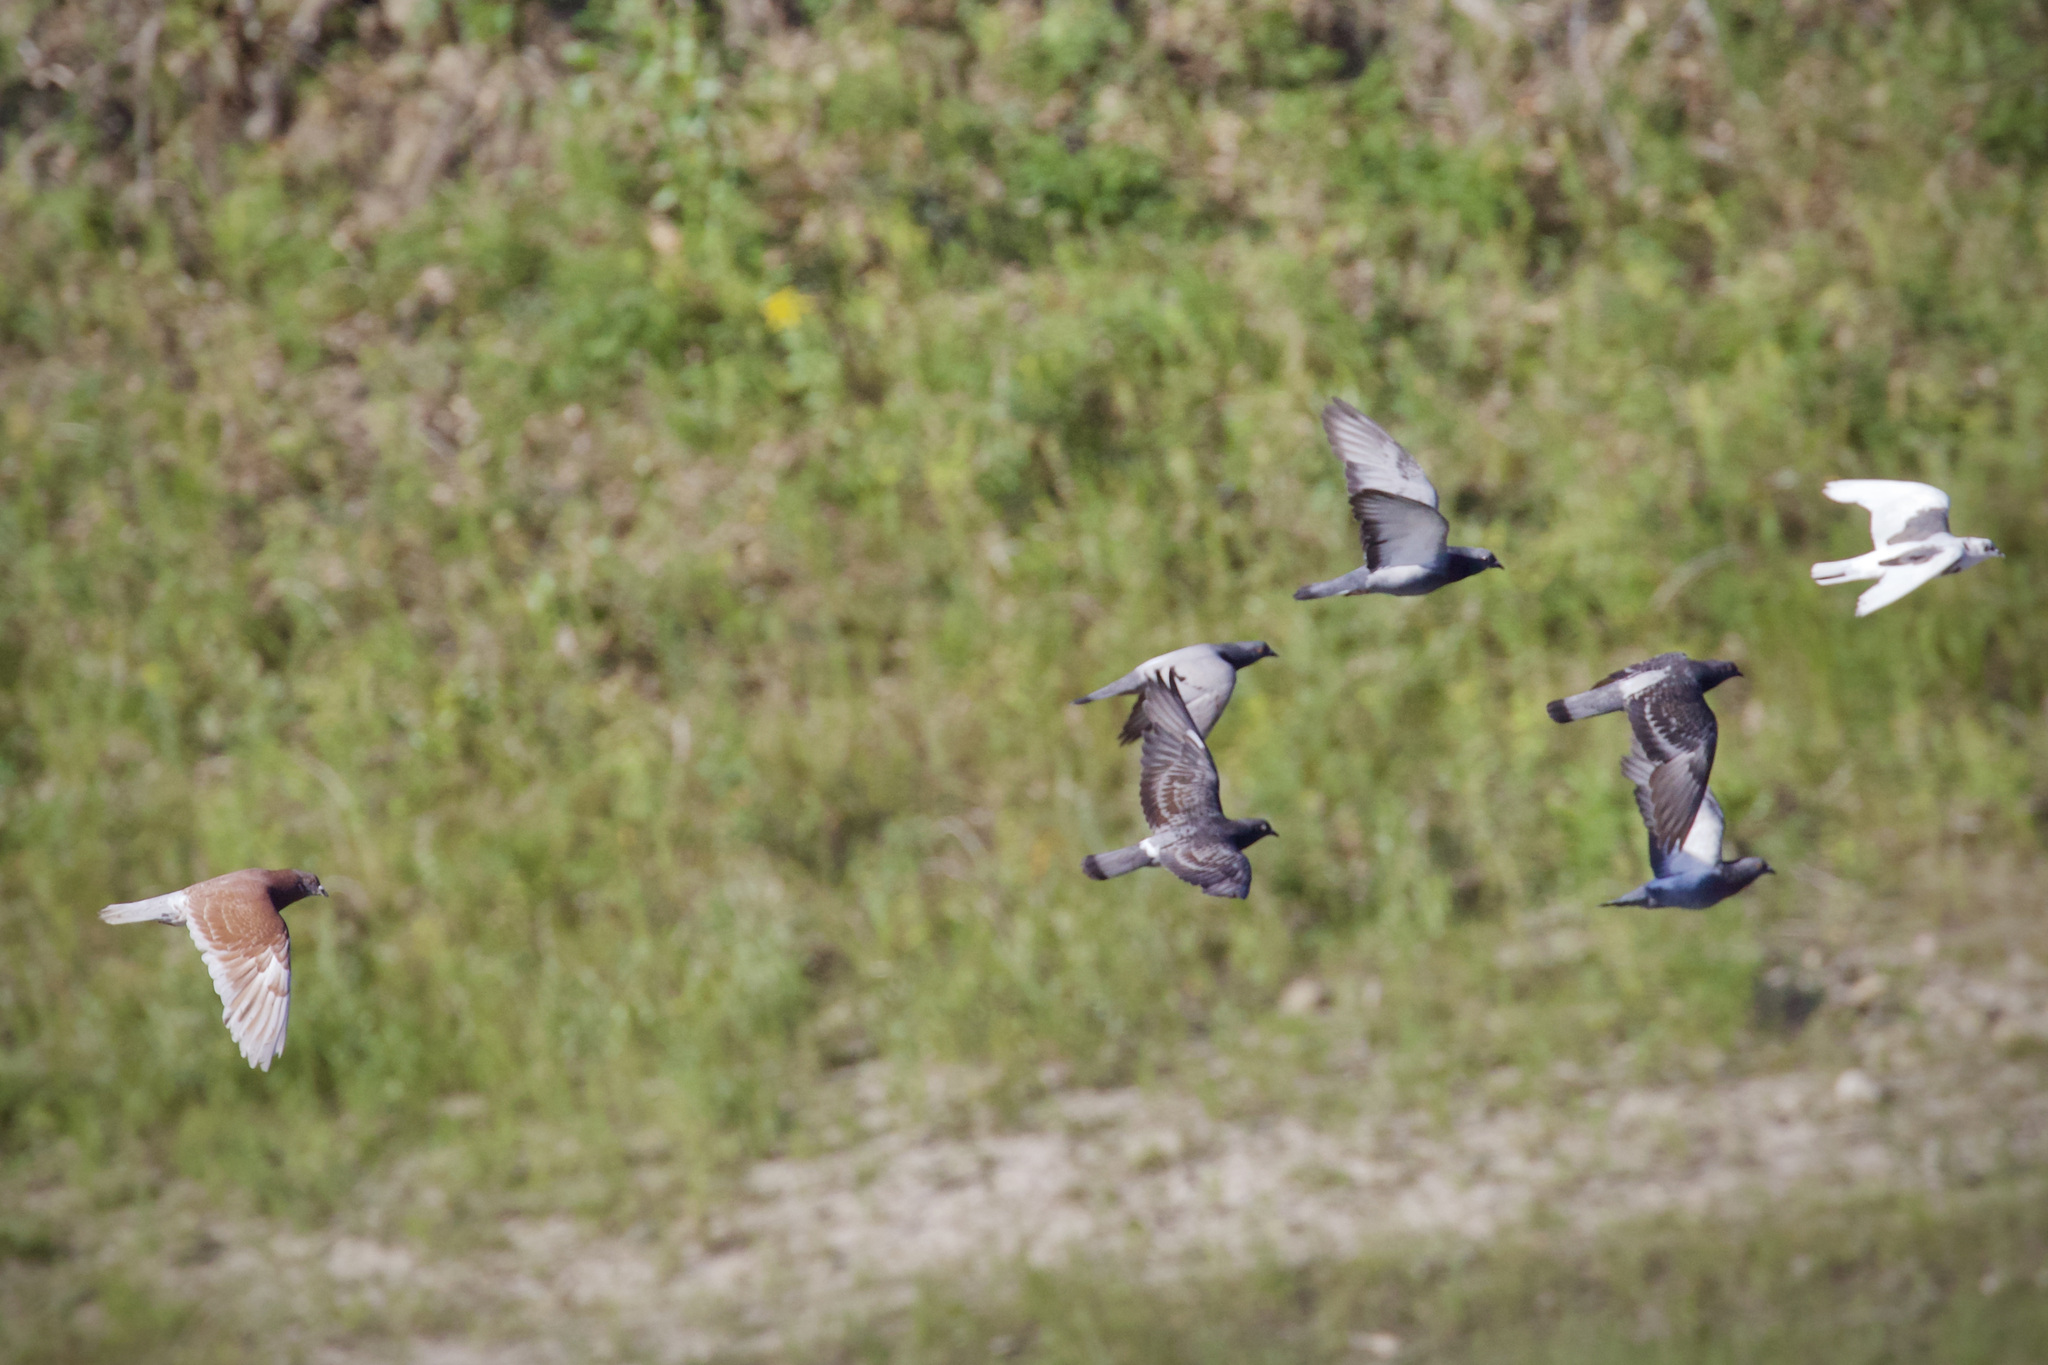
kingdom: Animalia
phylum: Chordata
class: Aves
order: Columbiformes
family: Columbidae
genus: Columba
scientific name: Columba livia
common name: Rock pigeon
